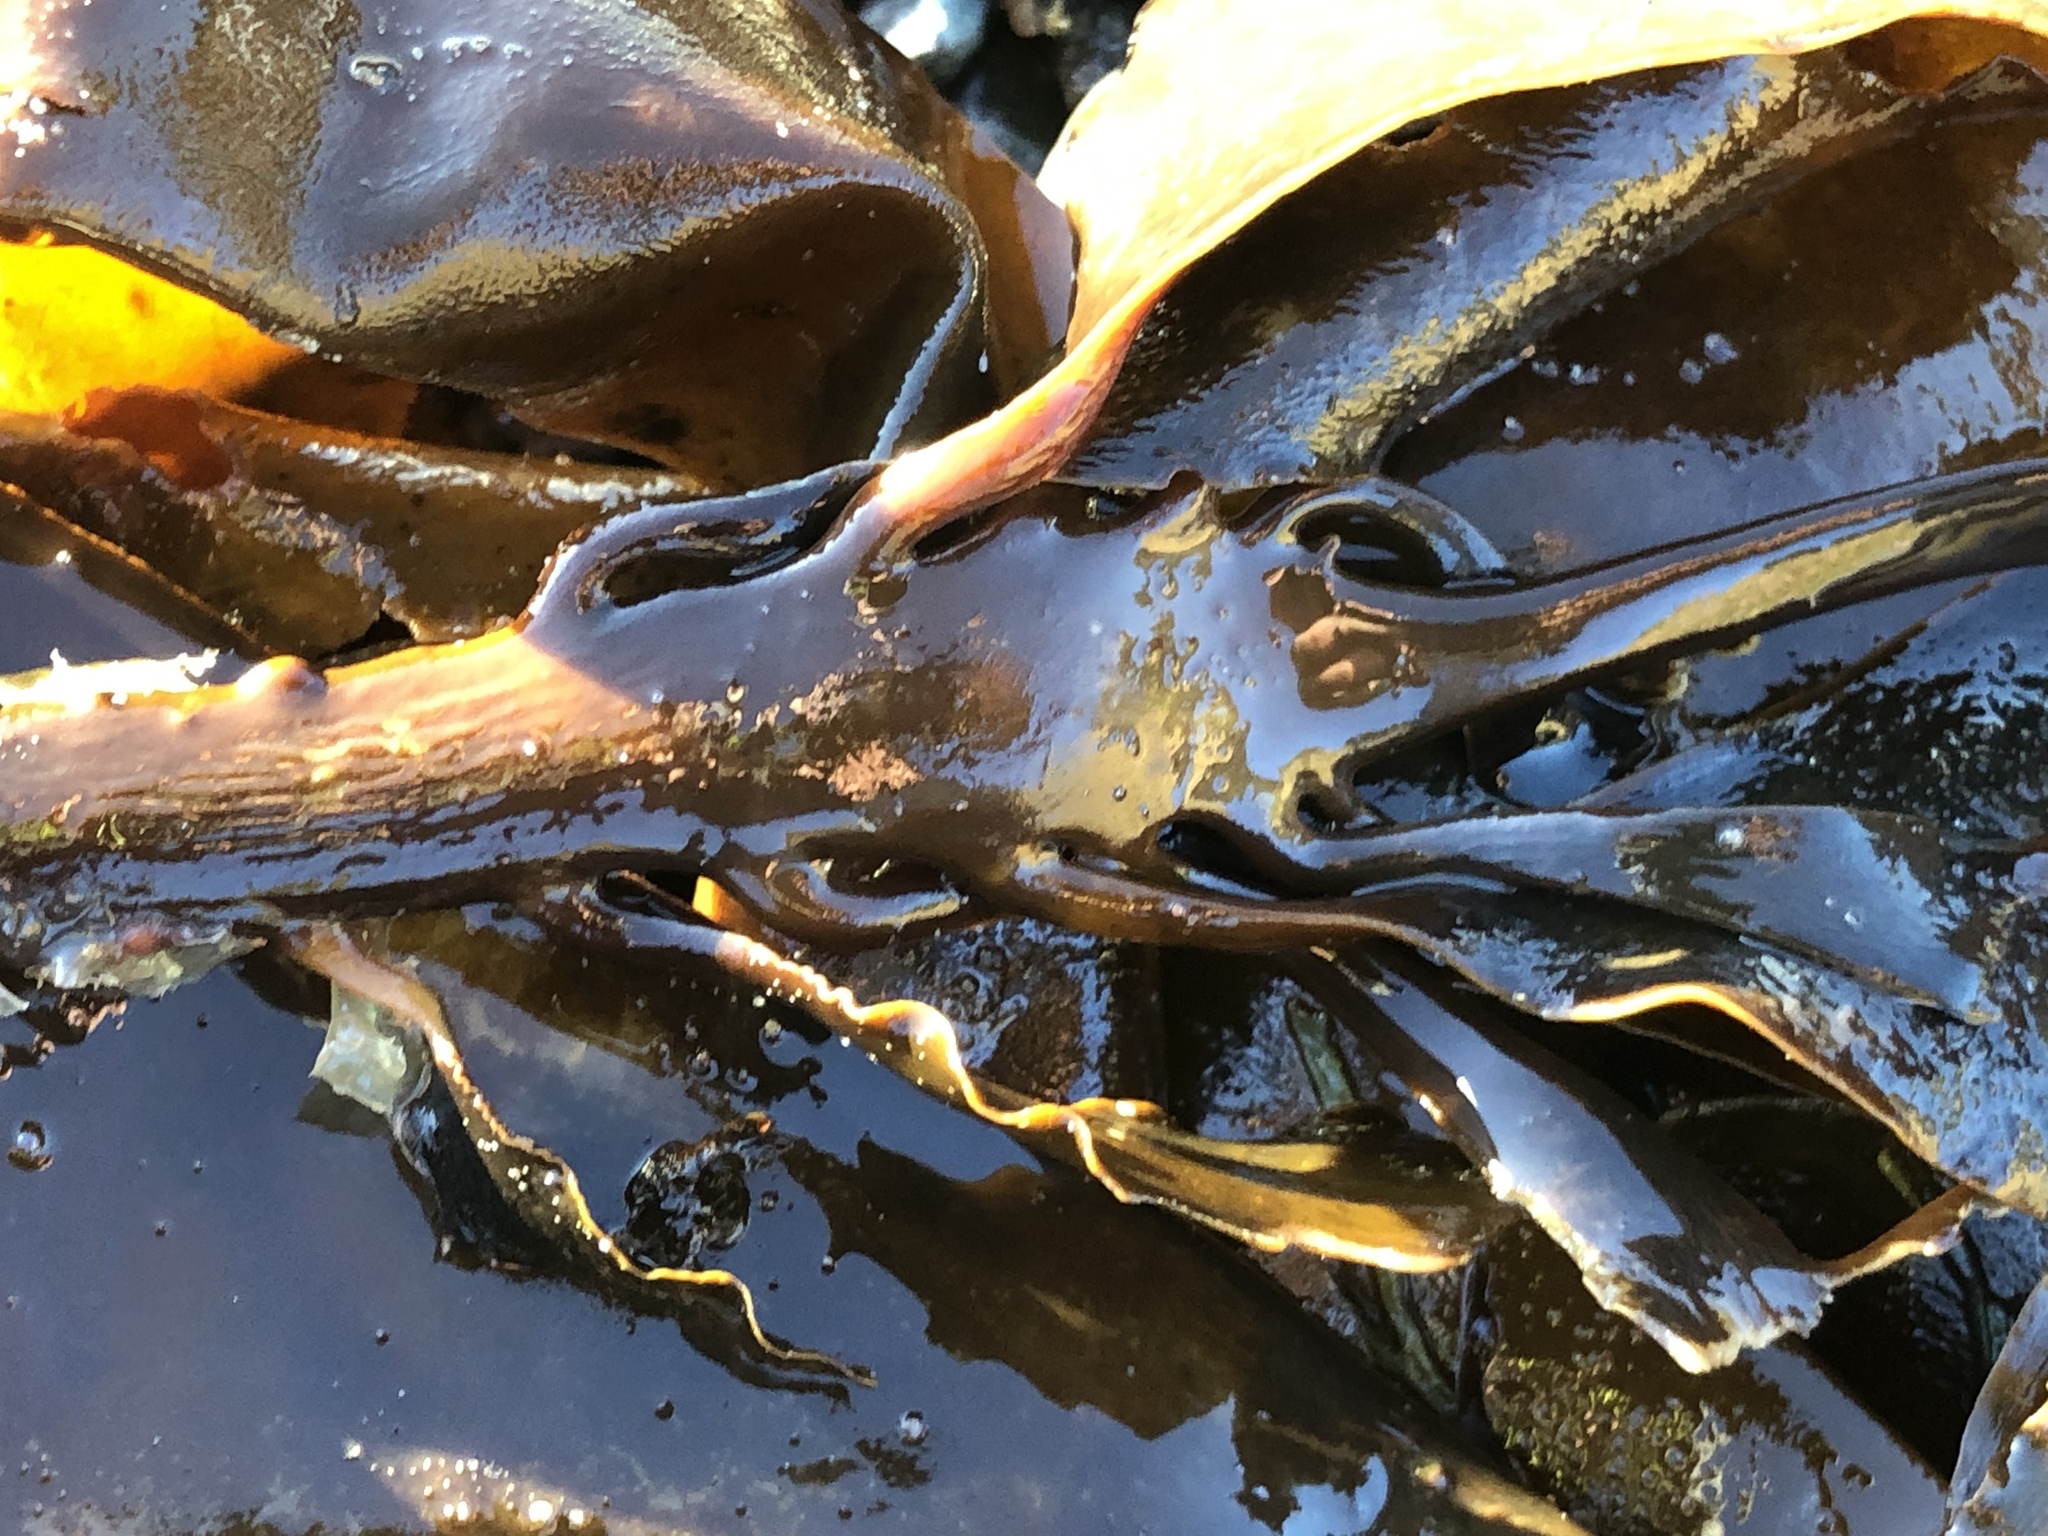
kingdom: Chromista
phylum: Ochrophyta
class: Phaeophyceae
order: Laminariales
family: Alariaceae
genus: Pterygophora
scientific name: Pterygophora californica
